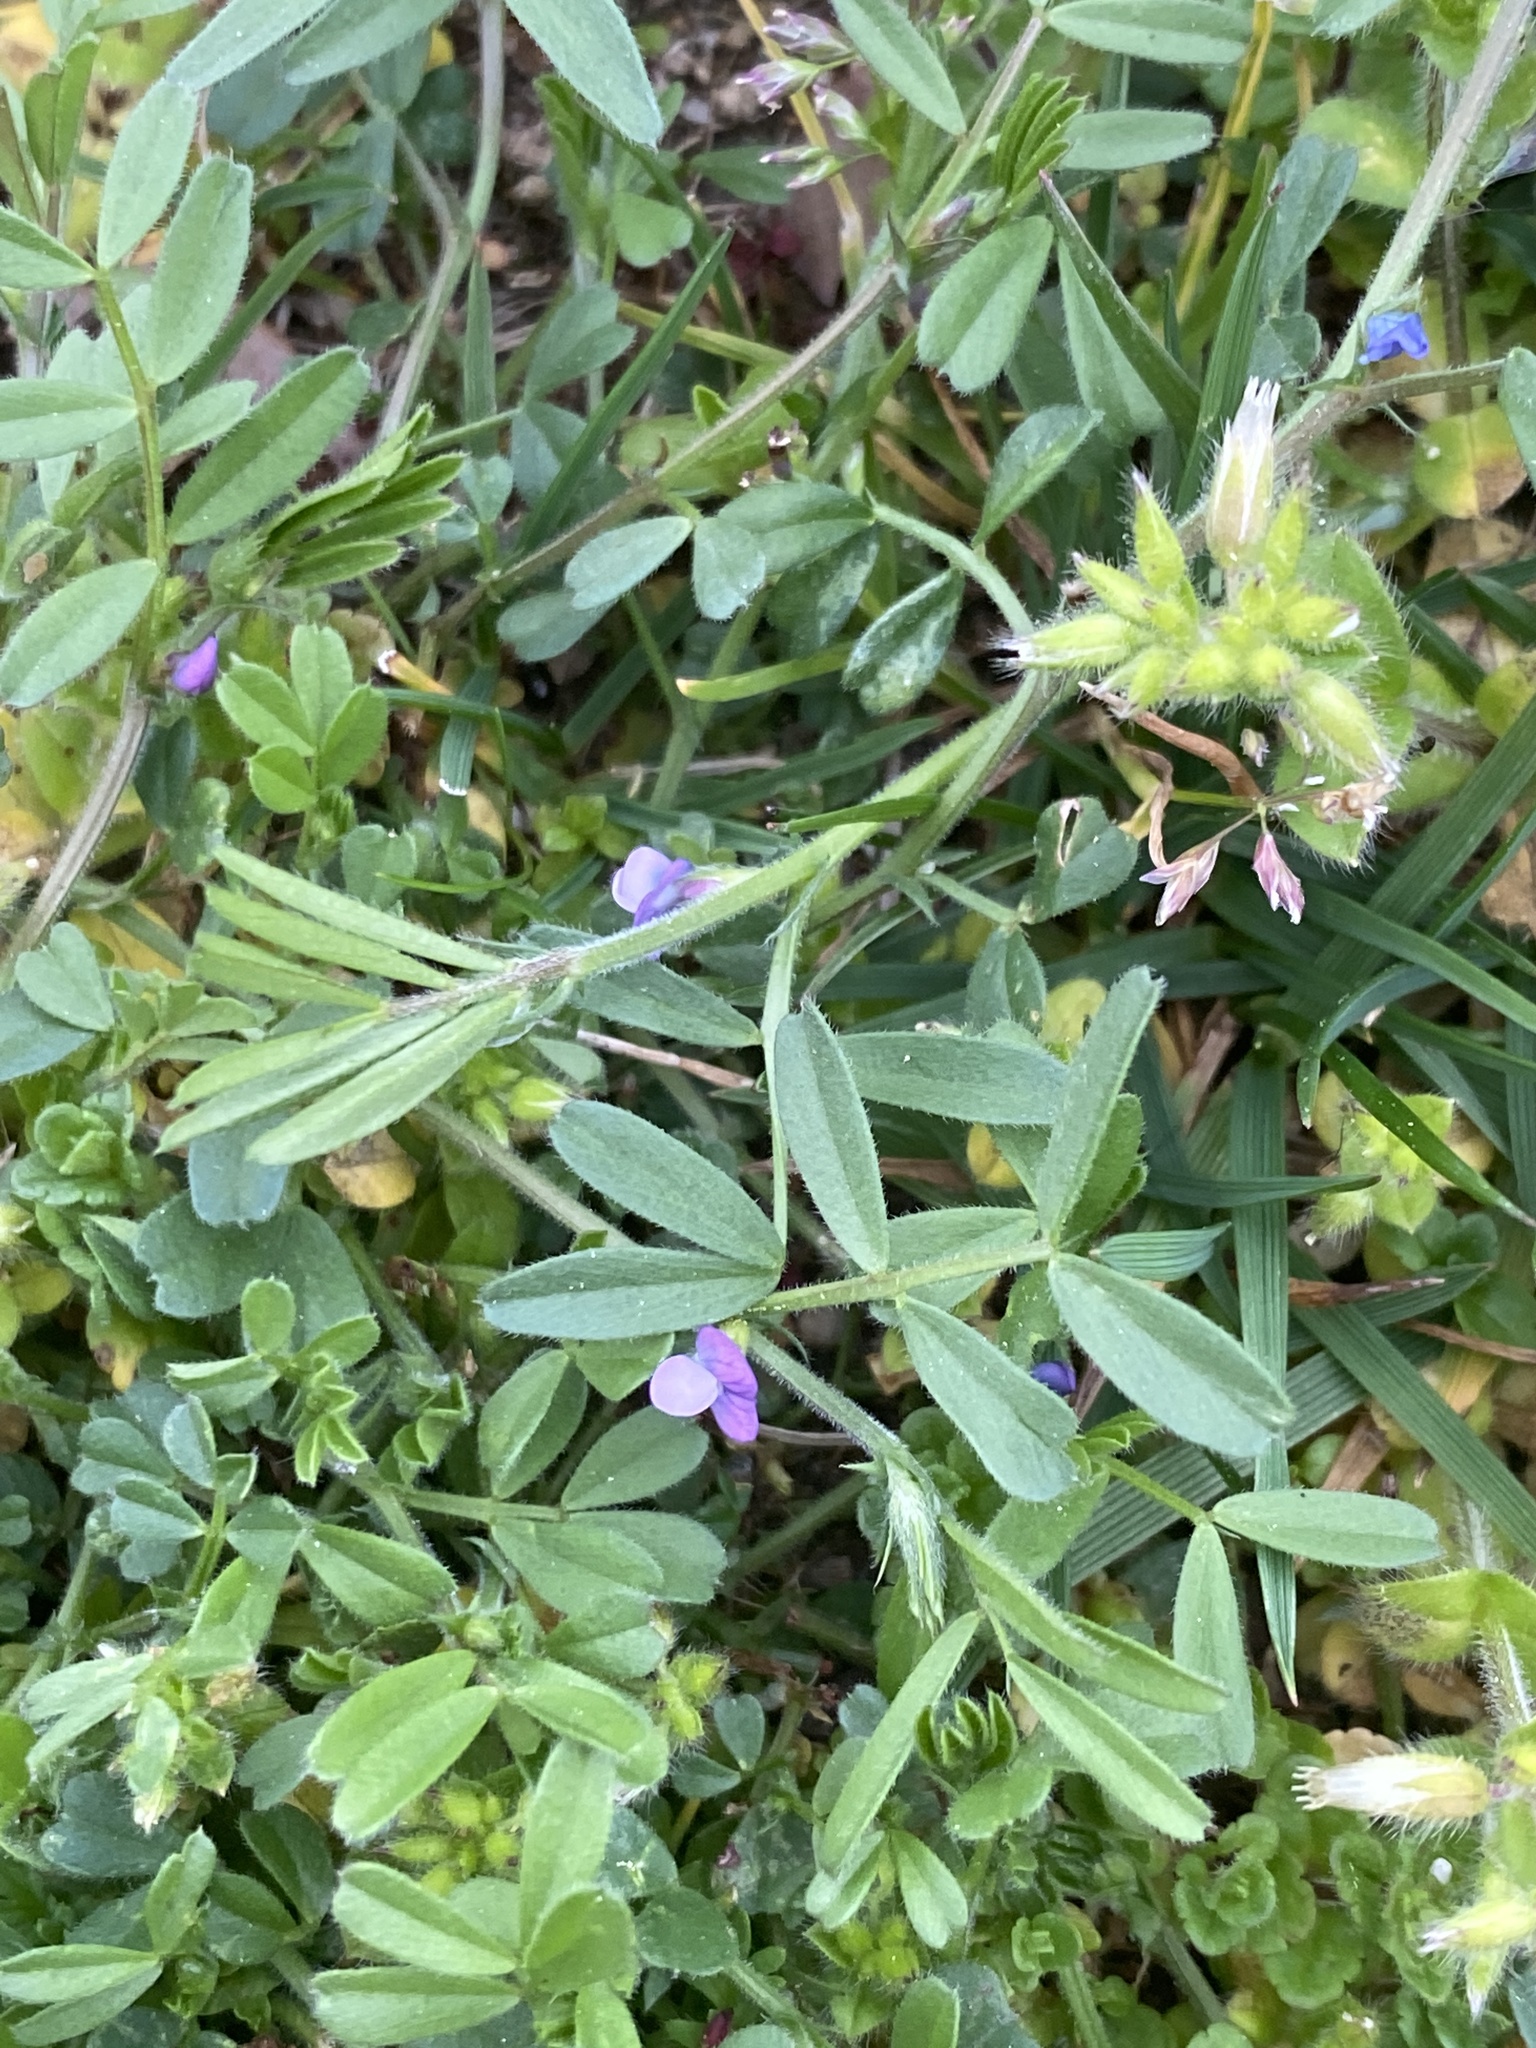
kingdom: Plantae
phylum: Tracheophyta
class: Magnoliopsida
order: Fabales
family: Fabaceae
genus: Vicia
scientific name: Vicia lathyroides
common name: Spring vetch
